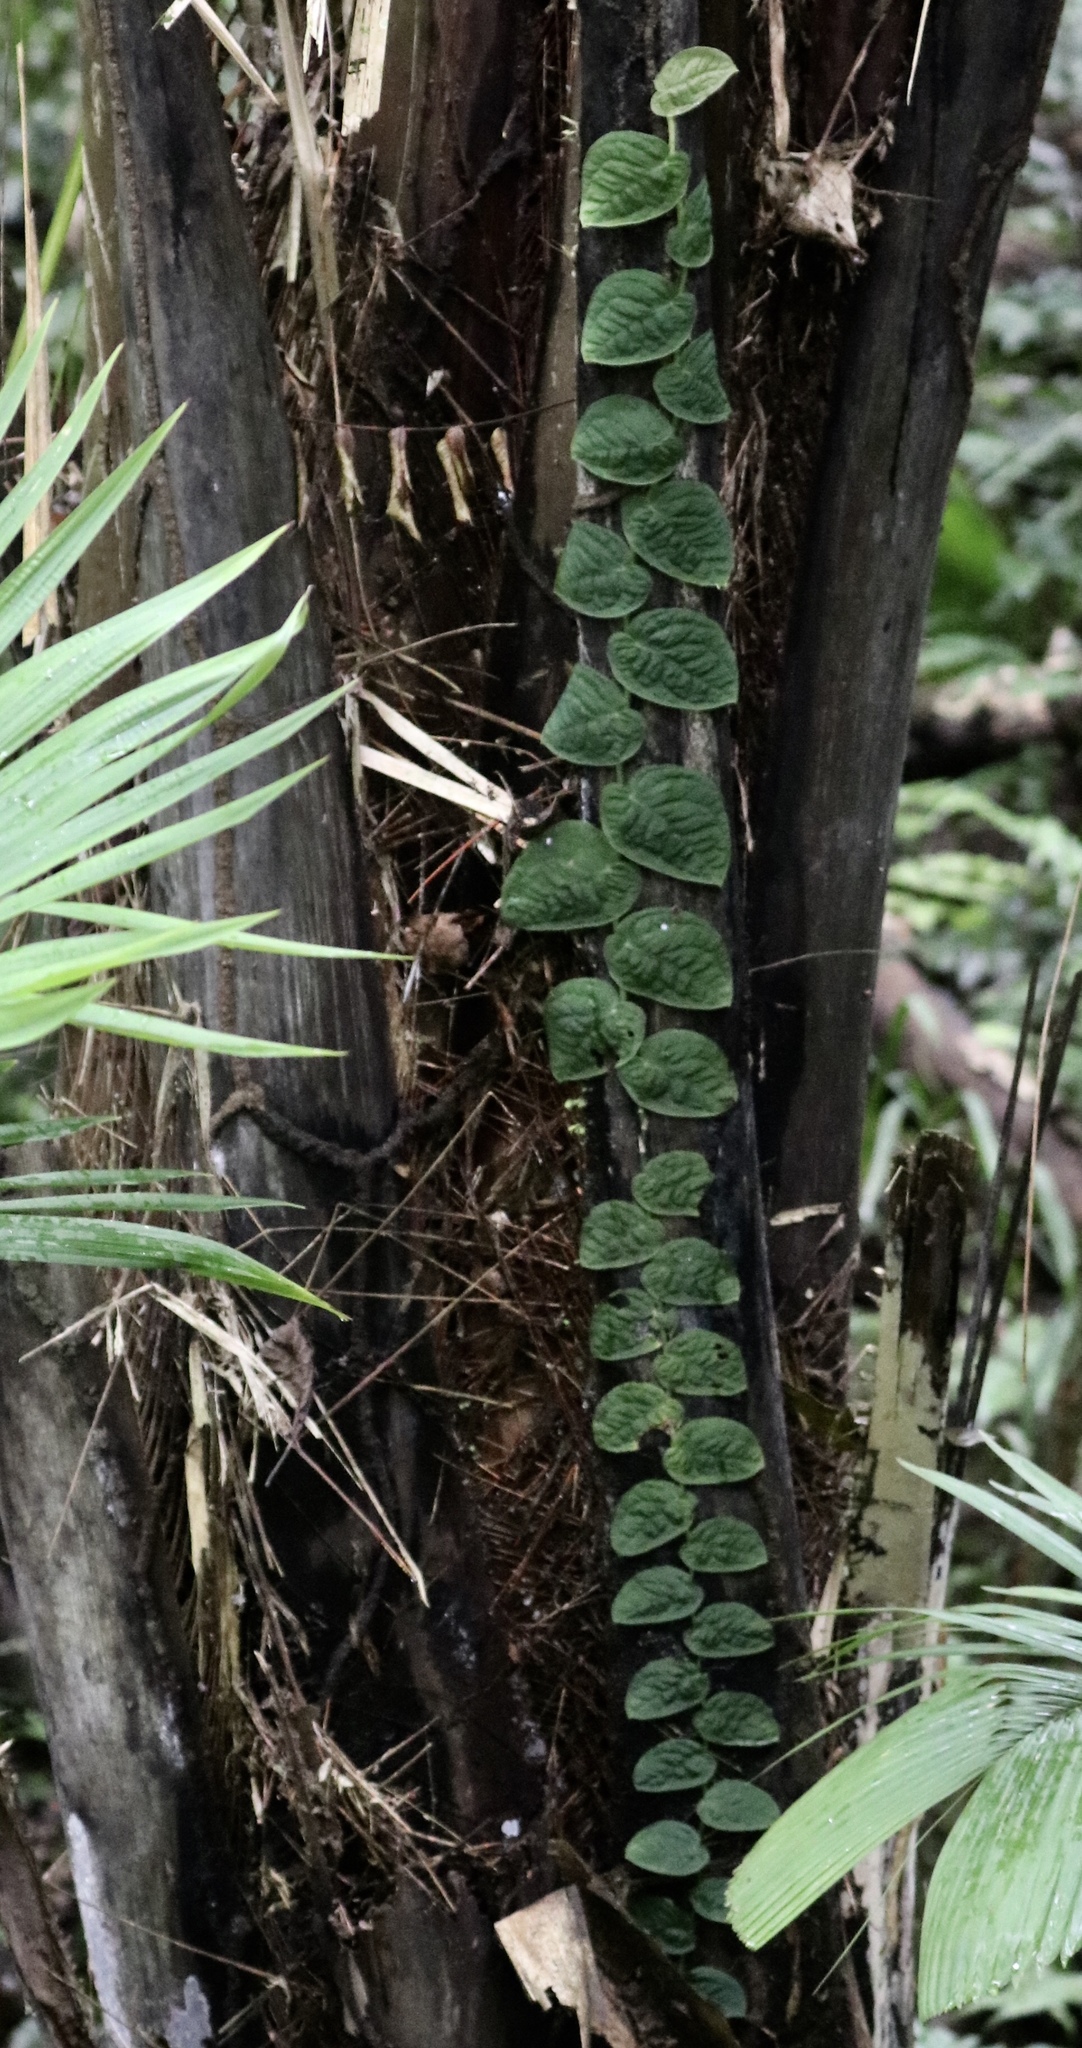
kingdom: Plantae
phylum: Tracheophyta
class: Liliopsida
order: Alismatales
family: Araceae
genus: Monstera
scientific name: Monstera dubia
